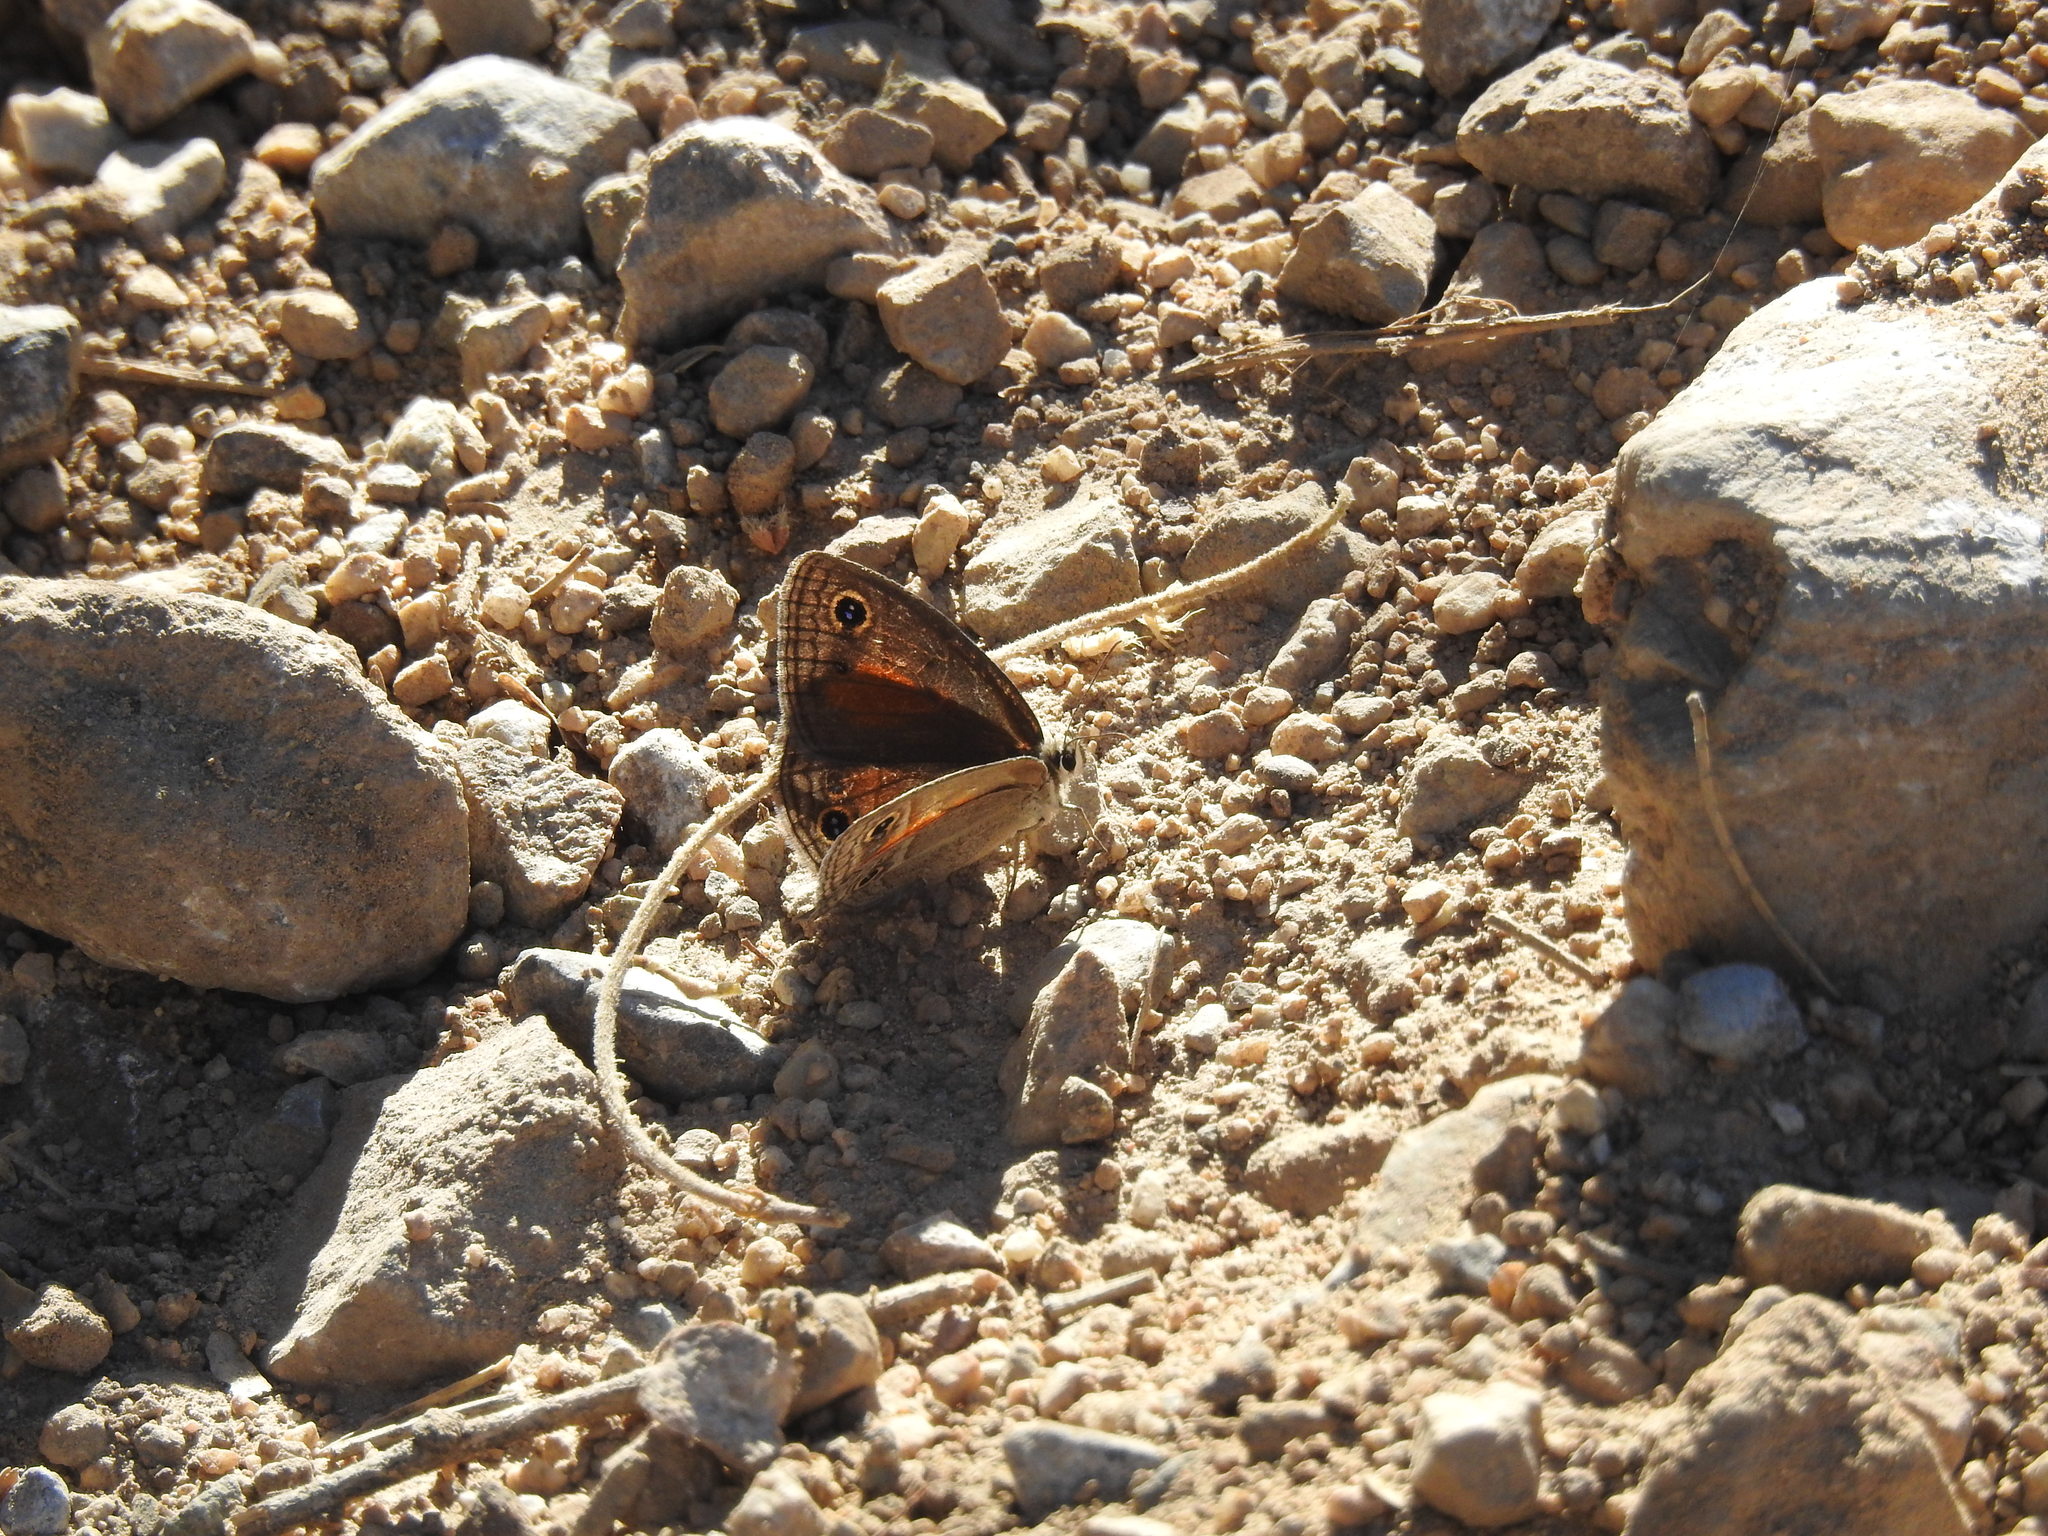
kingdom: Animalia
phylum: Arthropoda
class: Insecta
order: Lepidoptera
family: Nymphalidae
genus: Euptychia
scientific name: Euptychia
